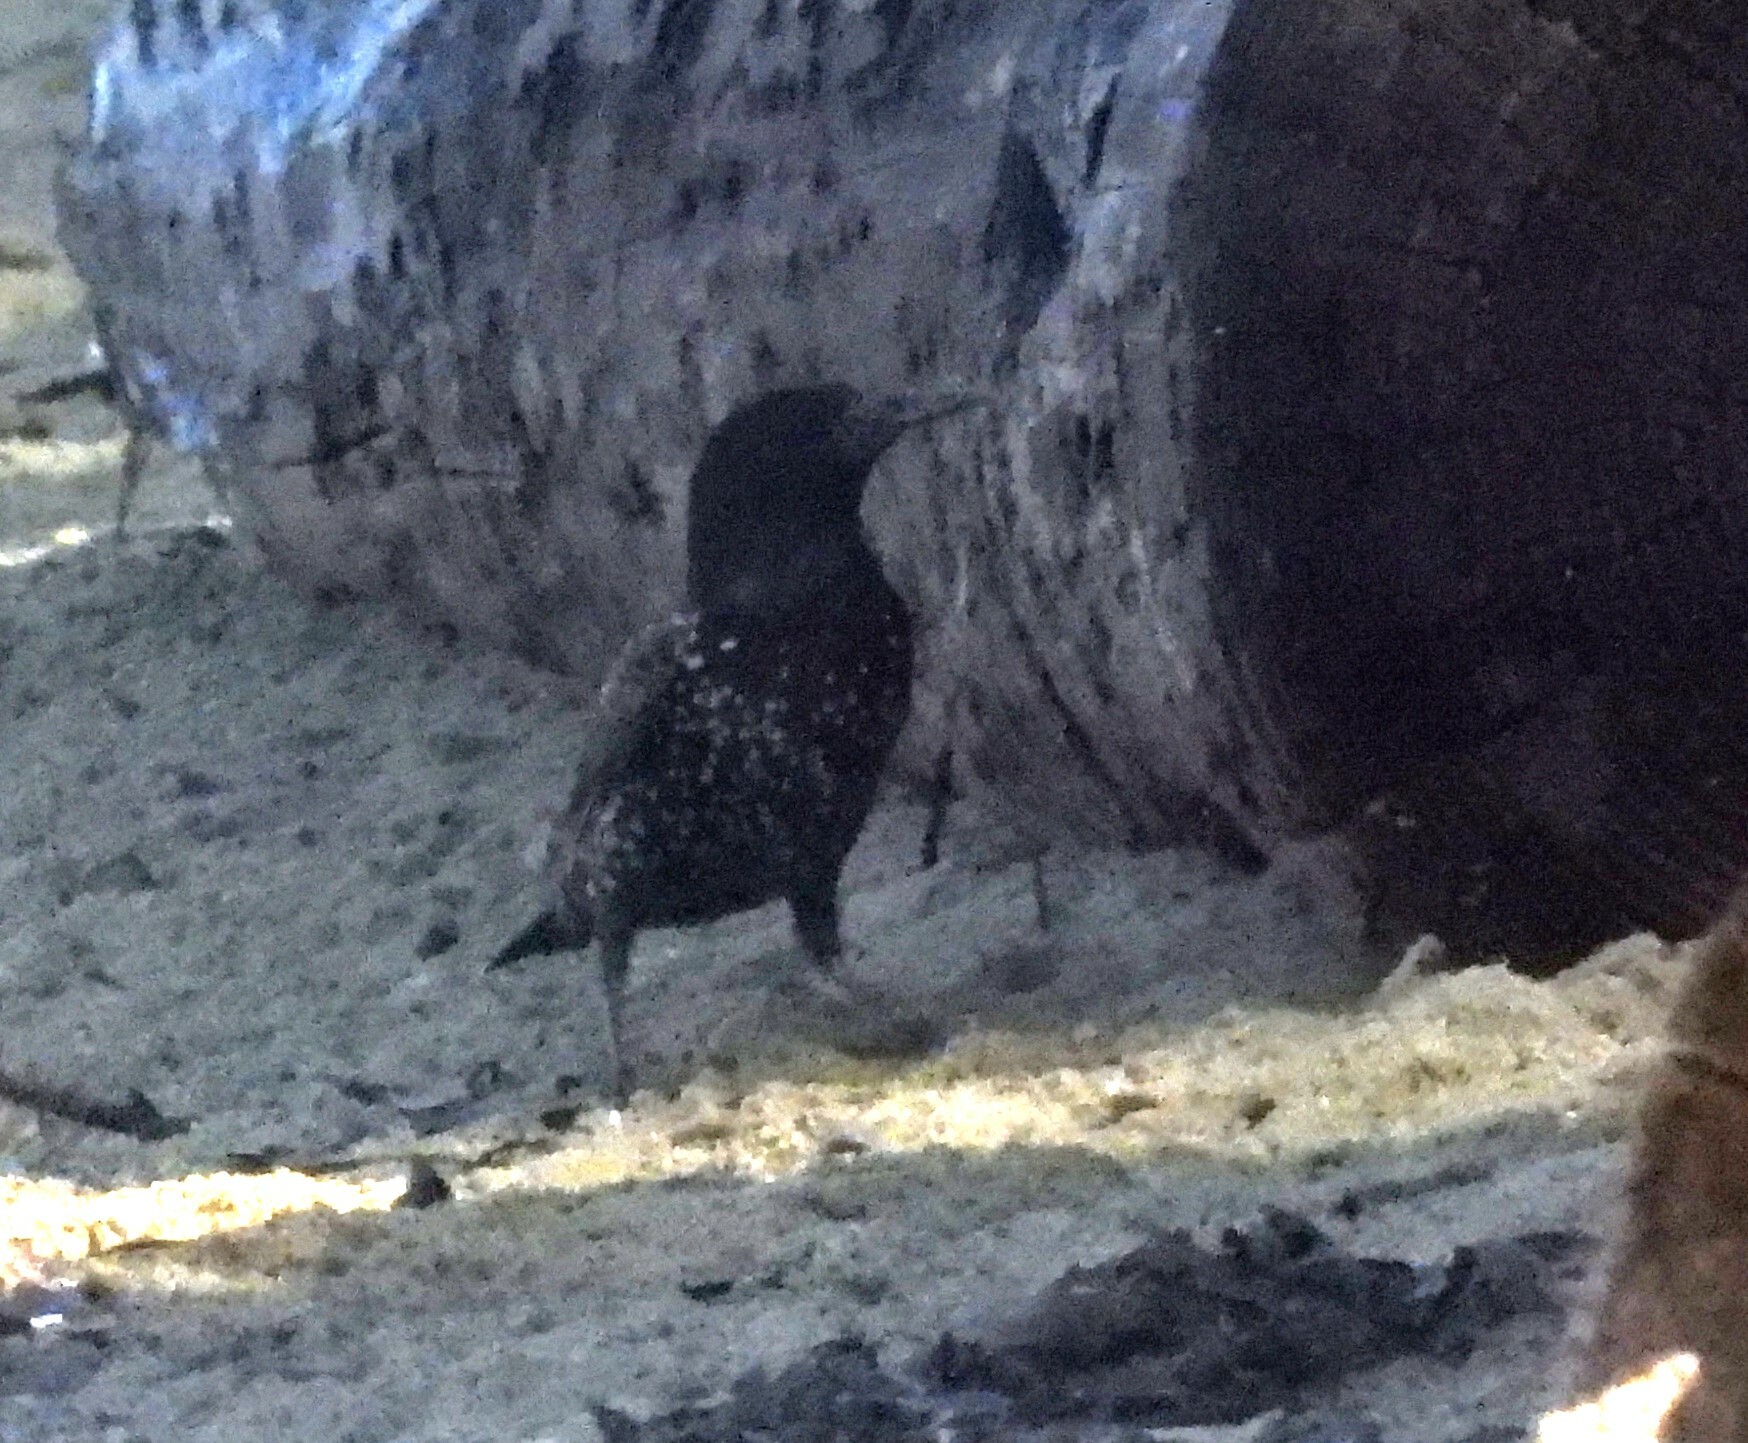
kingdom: Animalia
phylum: Chordata
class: Aves
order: Passeriformes
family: Sturnidae
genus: Sturnus
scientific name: Sturnus vulgaris
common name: Common starling
